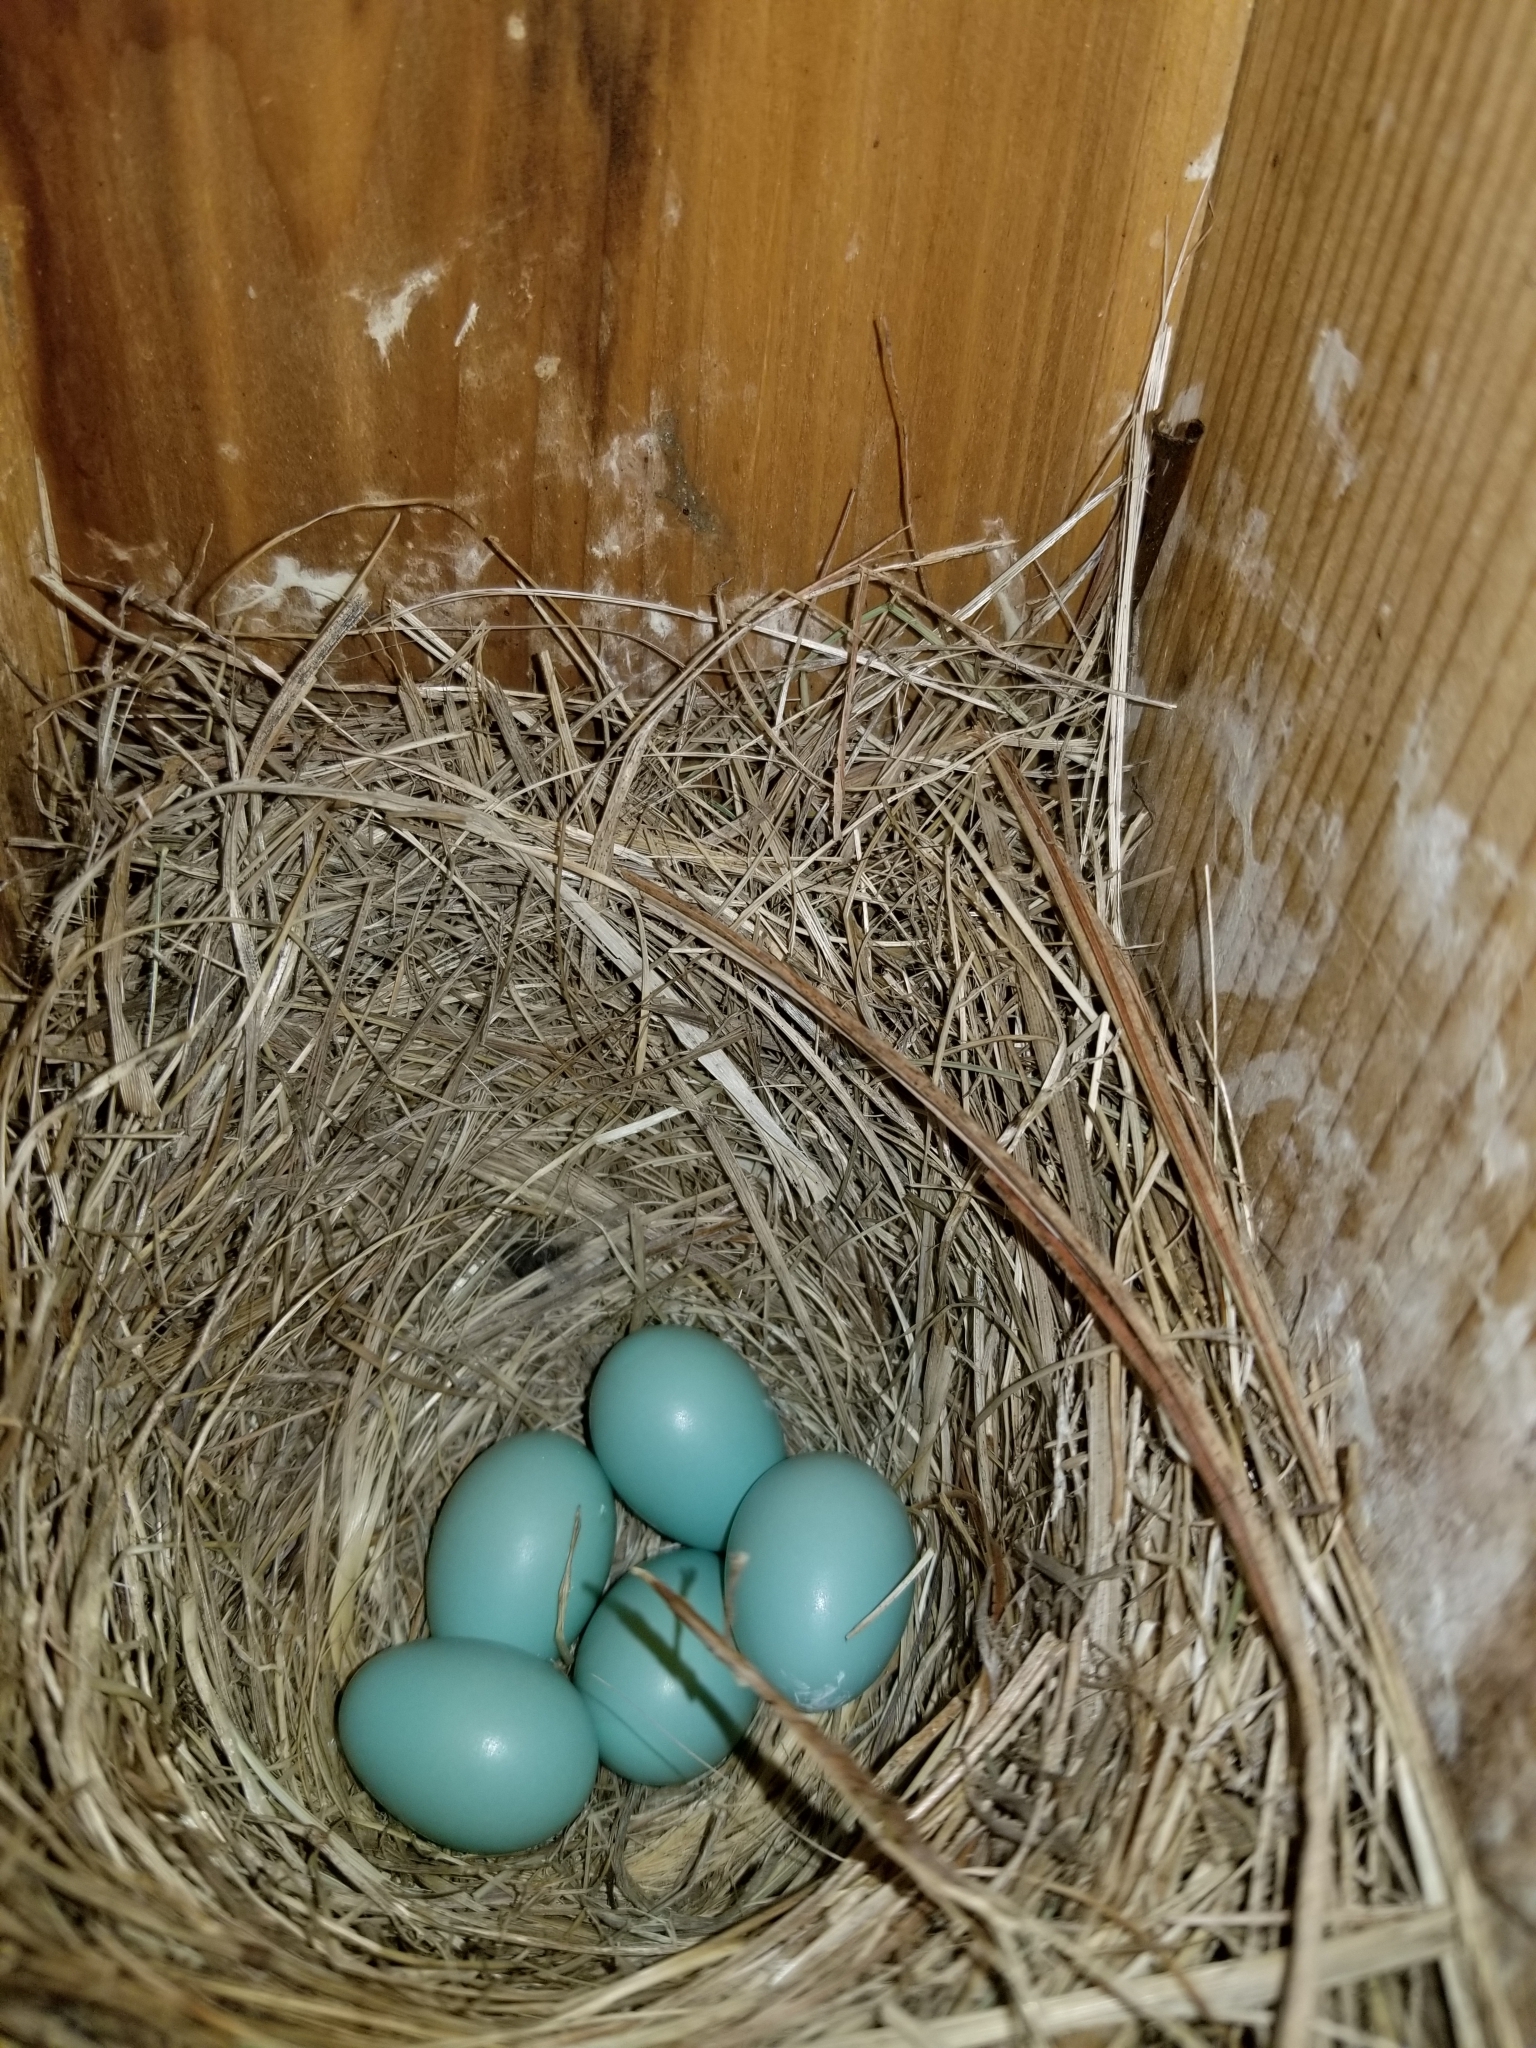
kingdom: Animalia
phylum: Chordata
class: Aves
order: Passeriformes
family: Turdidae
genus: Sialia
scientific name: Sialia sialis
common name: Eastern bluebird
